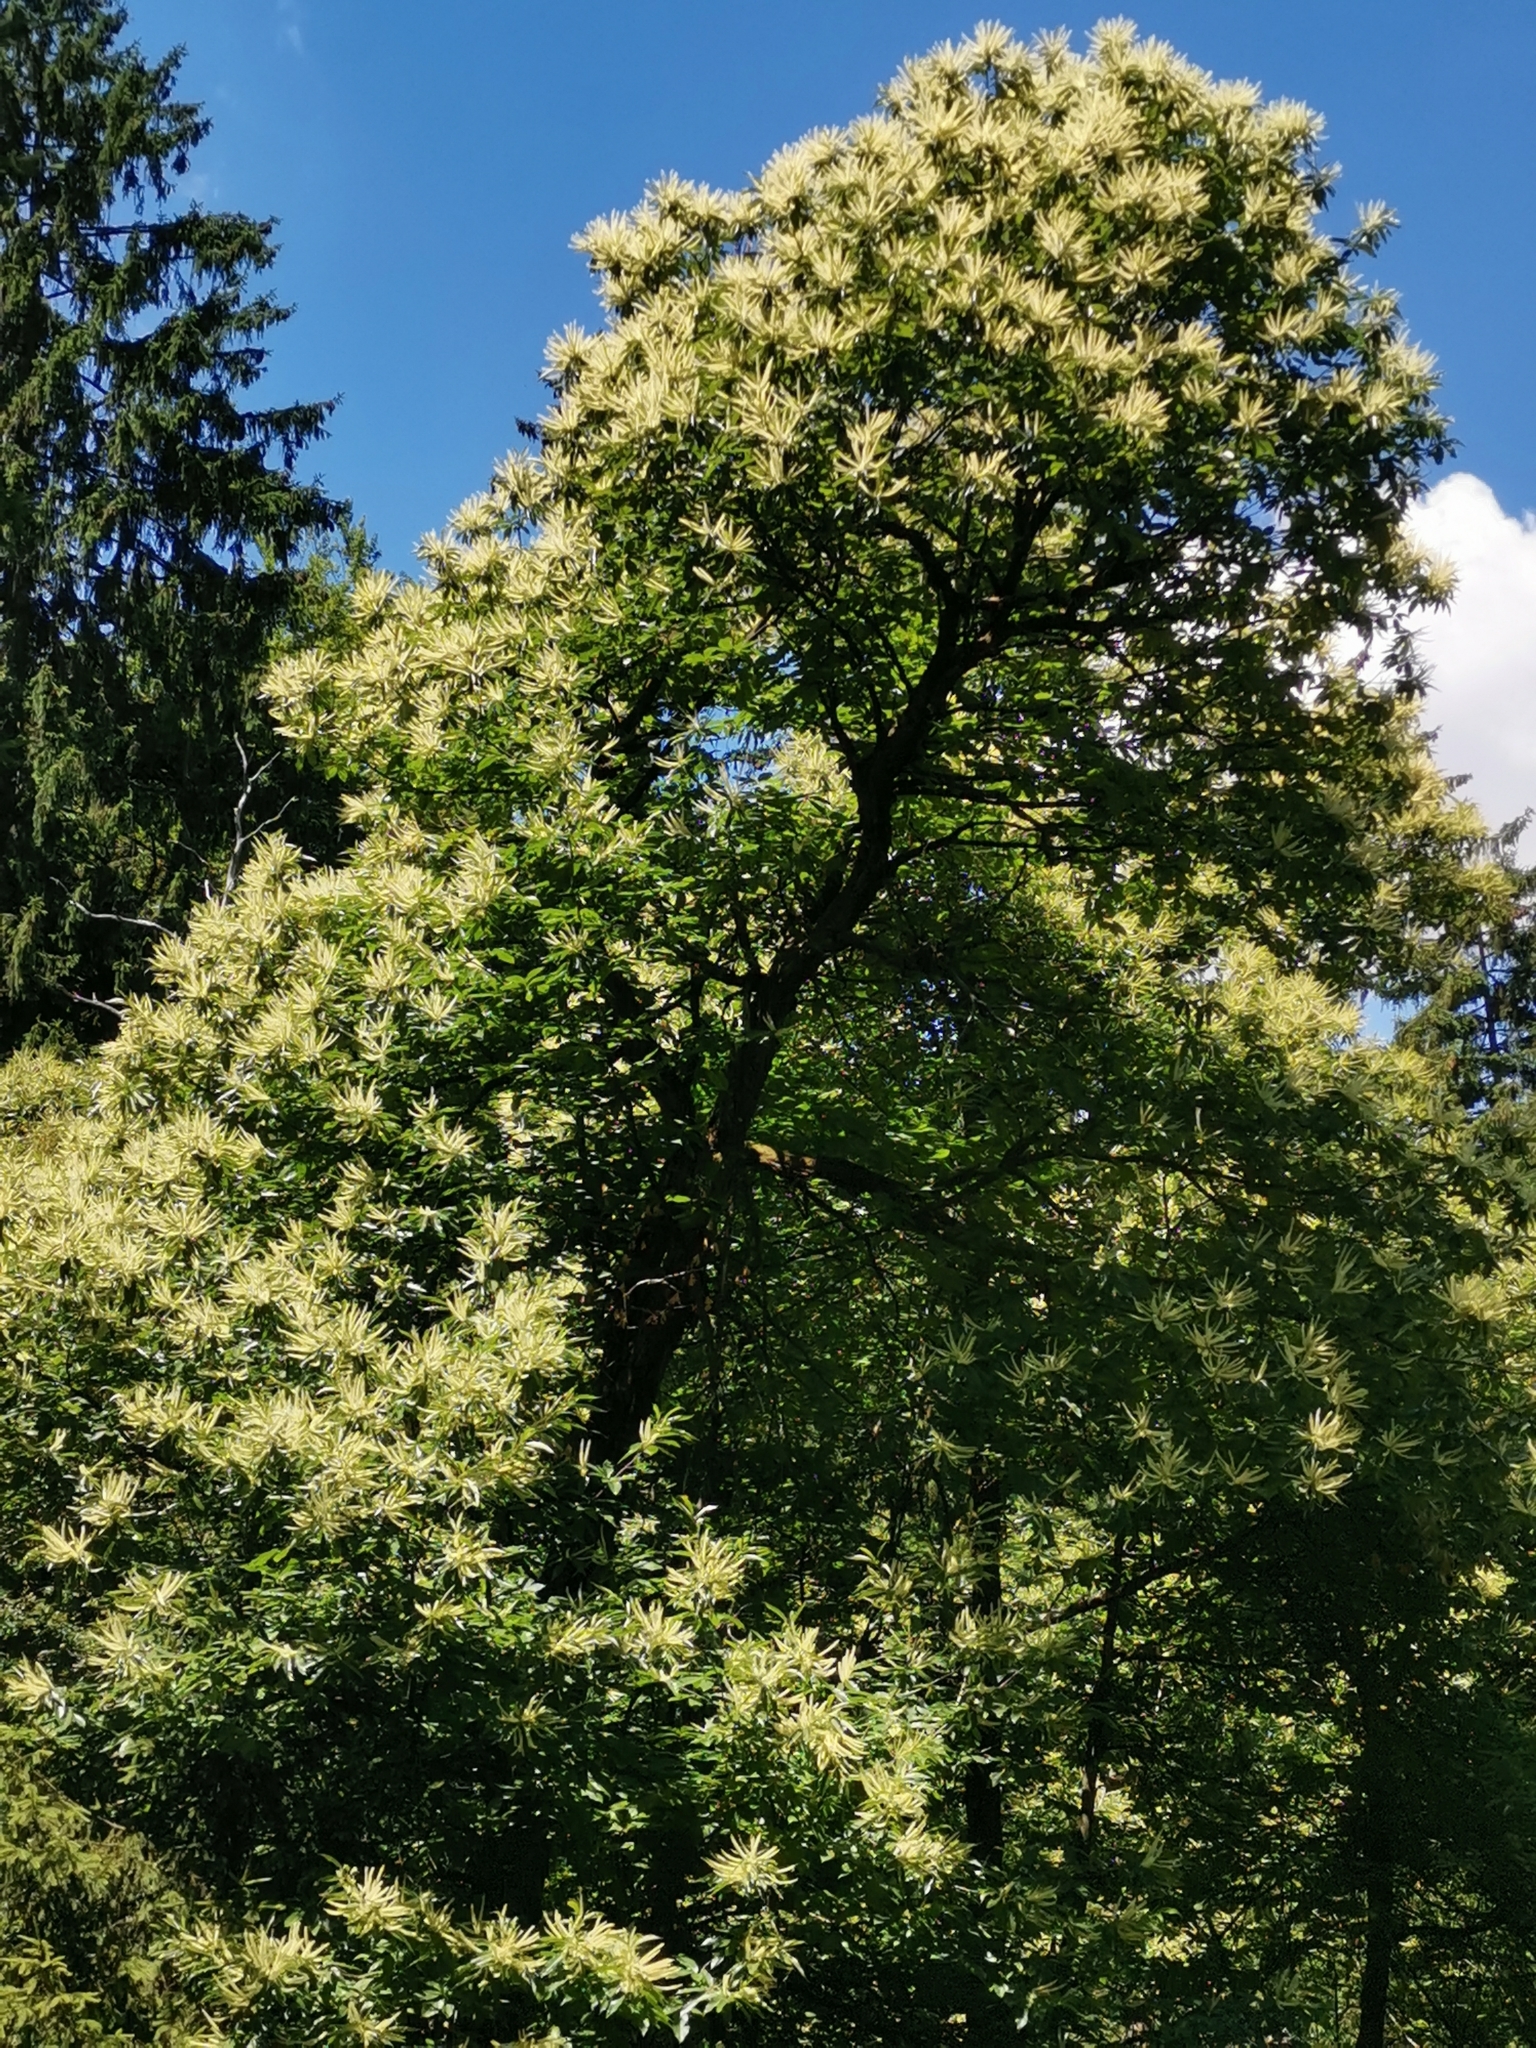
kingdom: Plantae
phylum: Tracheophyta
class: Magnoliopsida
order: Fagales
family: Fagaceae
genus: Castanea
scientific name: Castanea sativa
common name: Sweet chestnut
